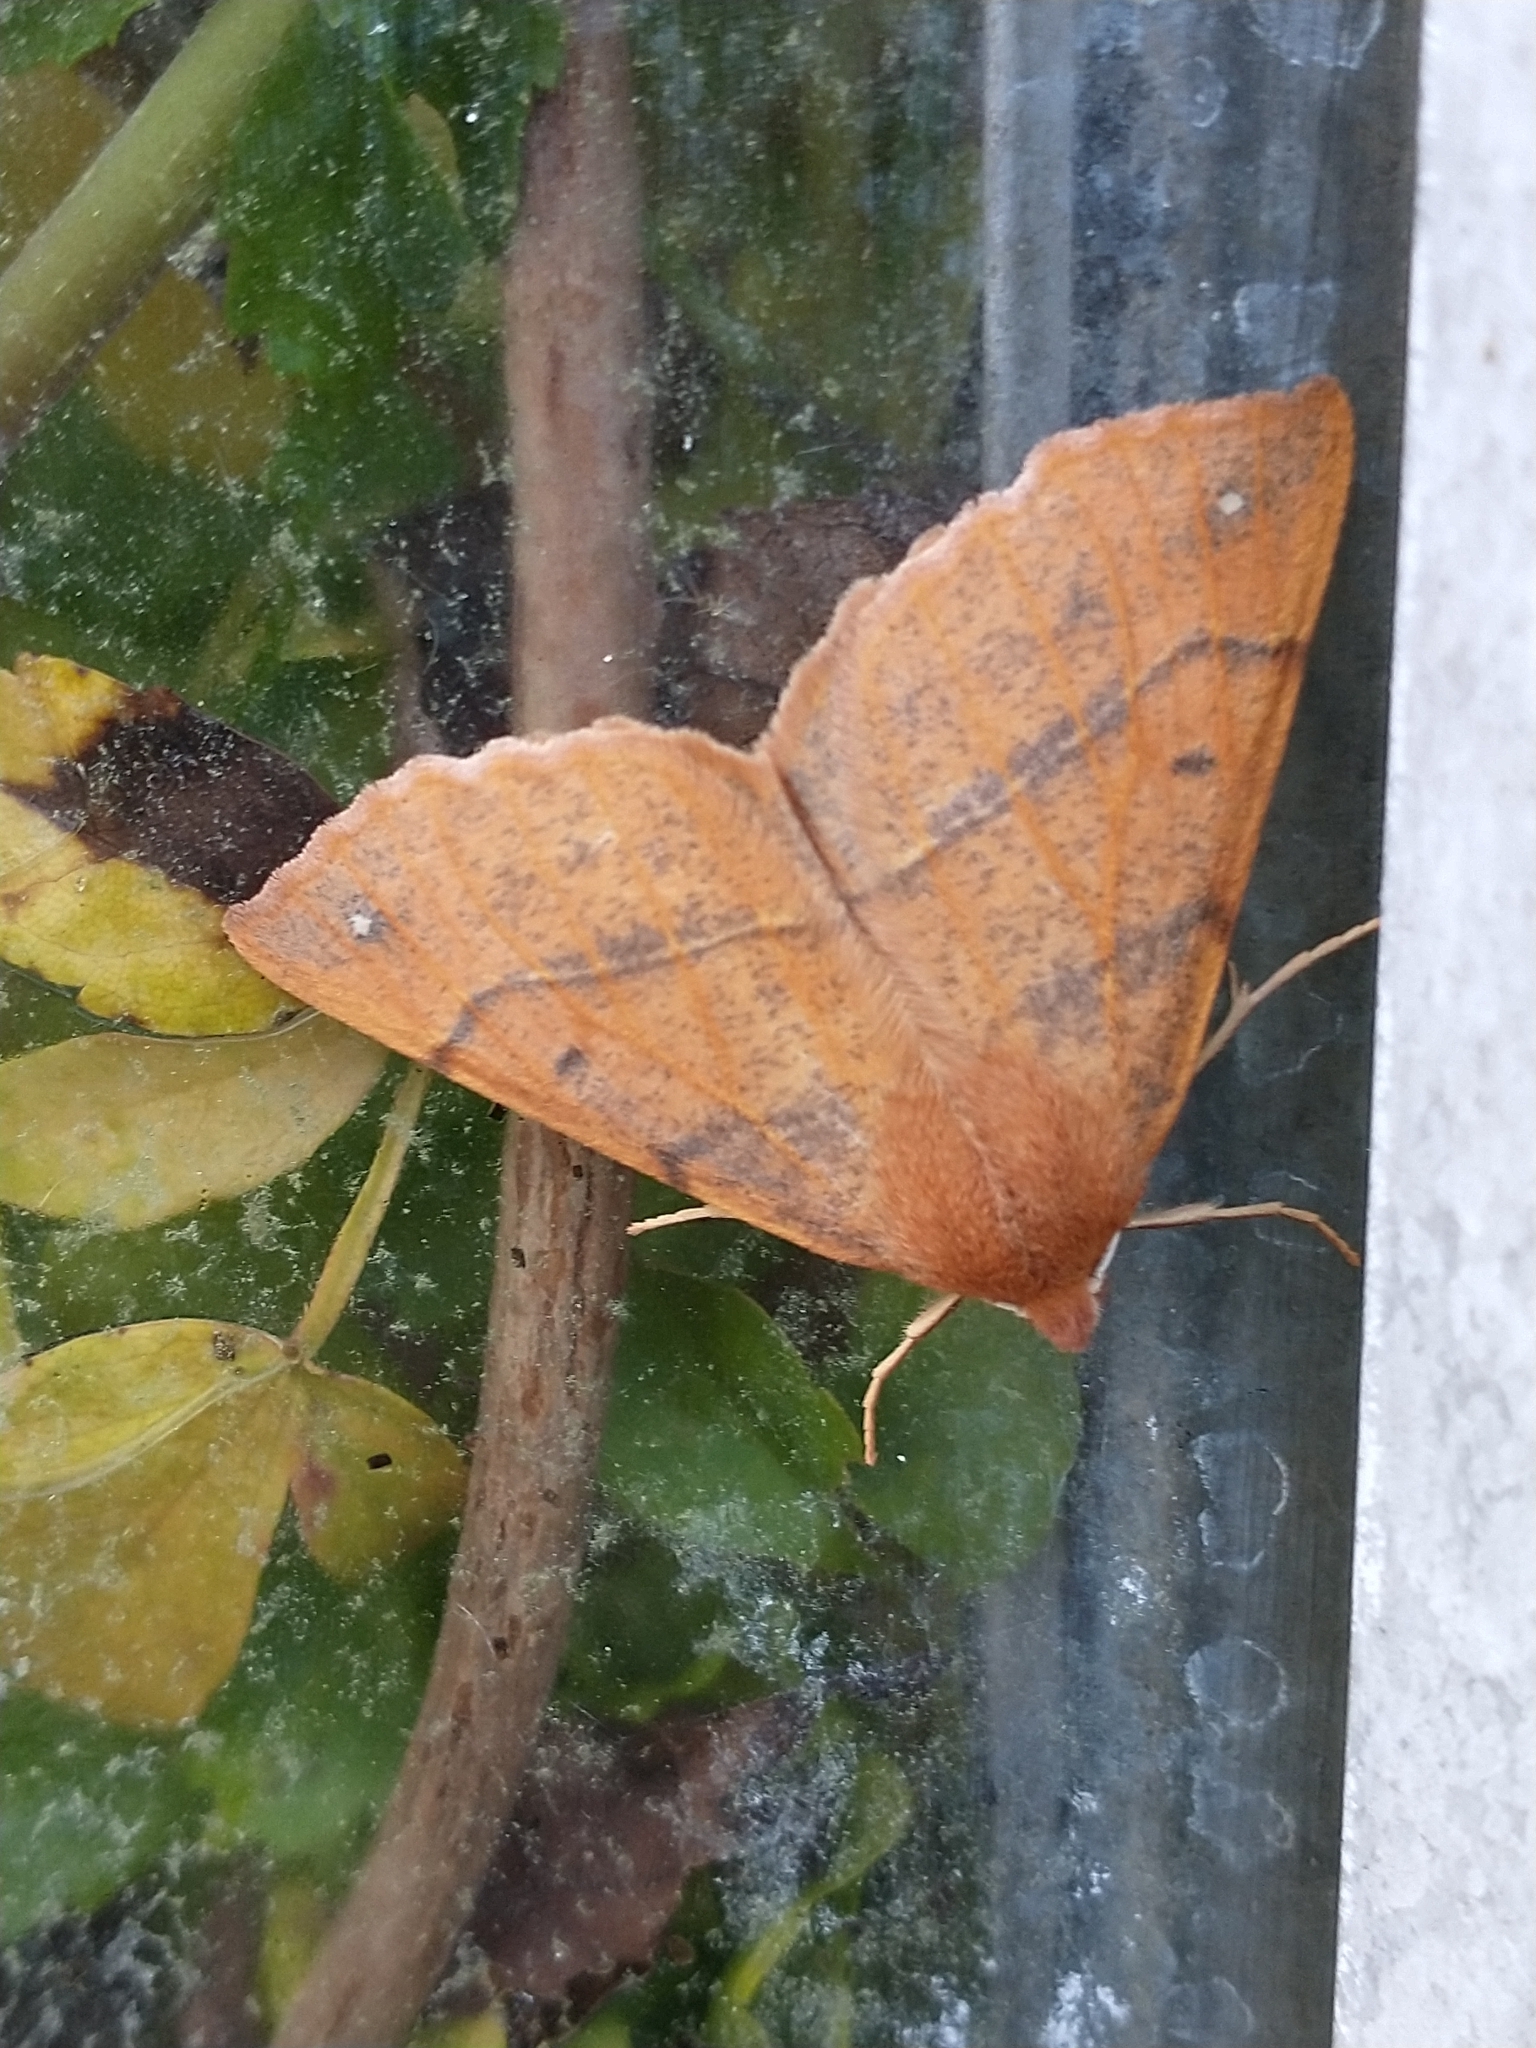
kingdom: Animalia
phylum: Arthropoda
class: Insecta
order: Lepidoptera
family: Geometridae
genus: Colotois
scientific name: Colotois pennaria
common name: Feathered thorn
